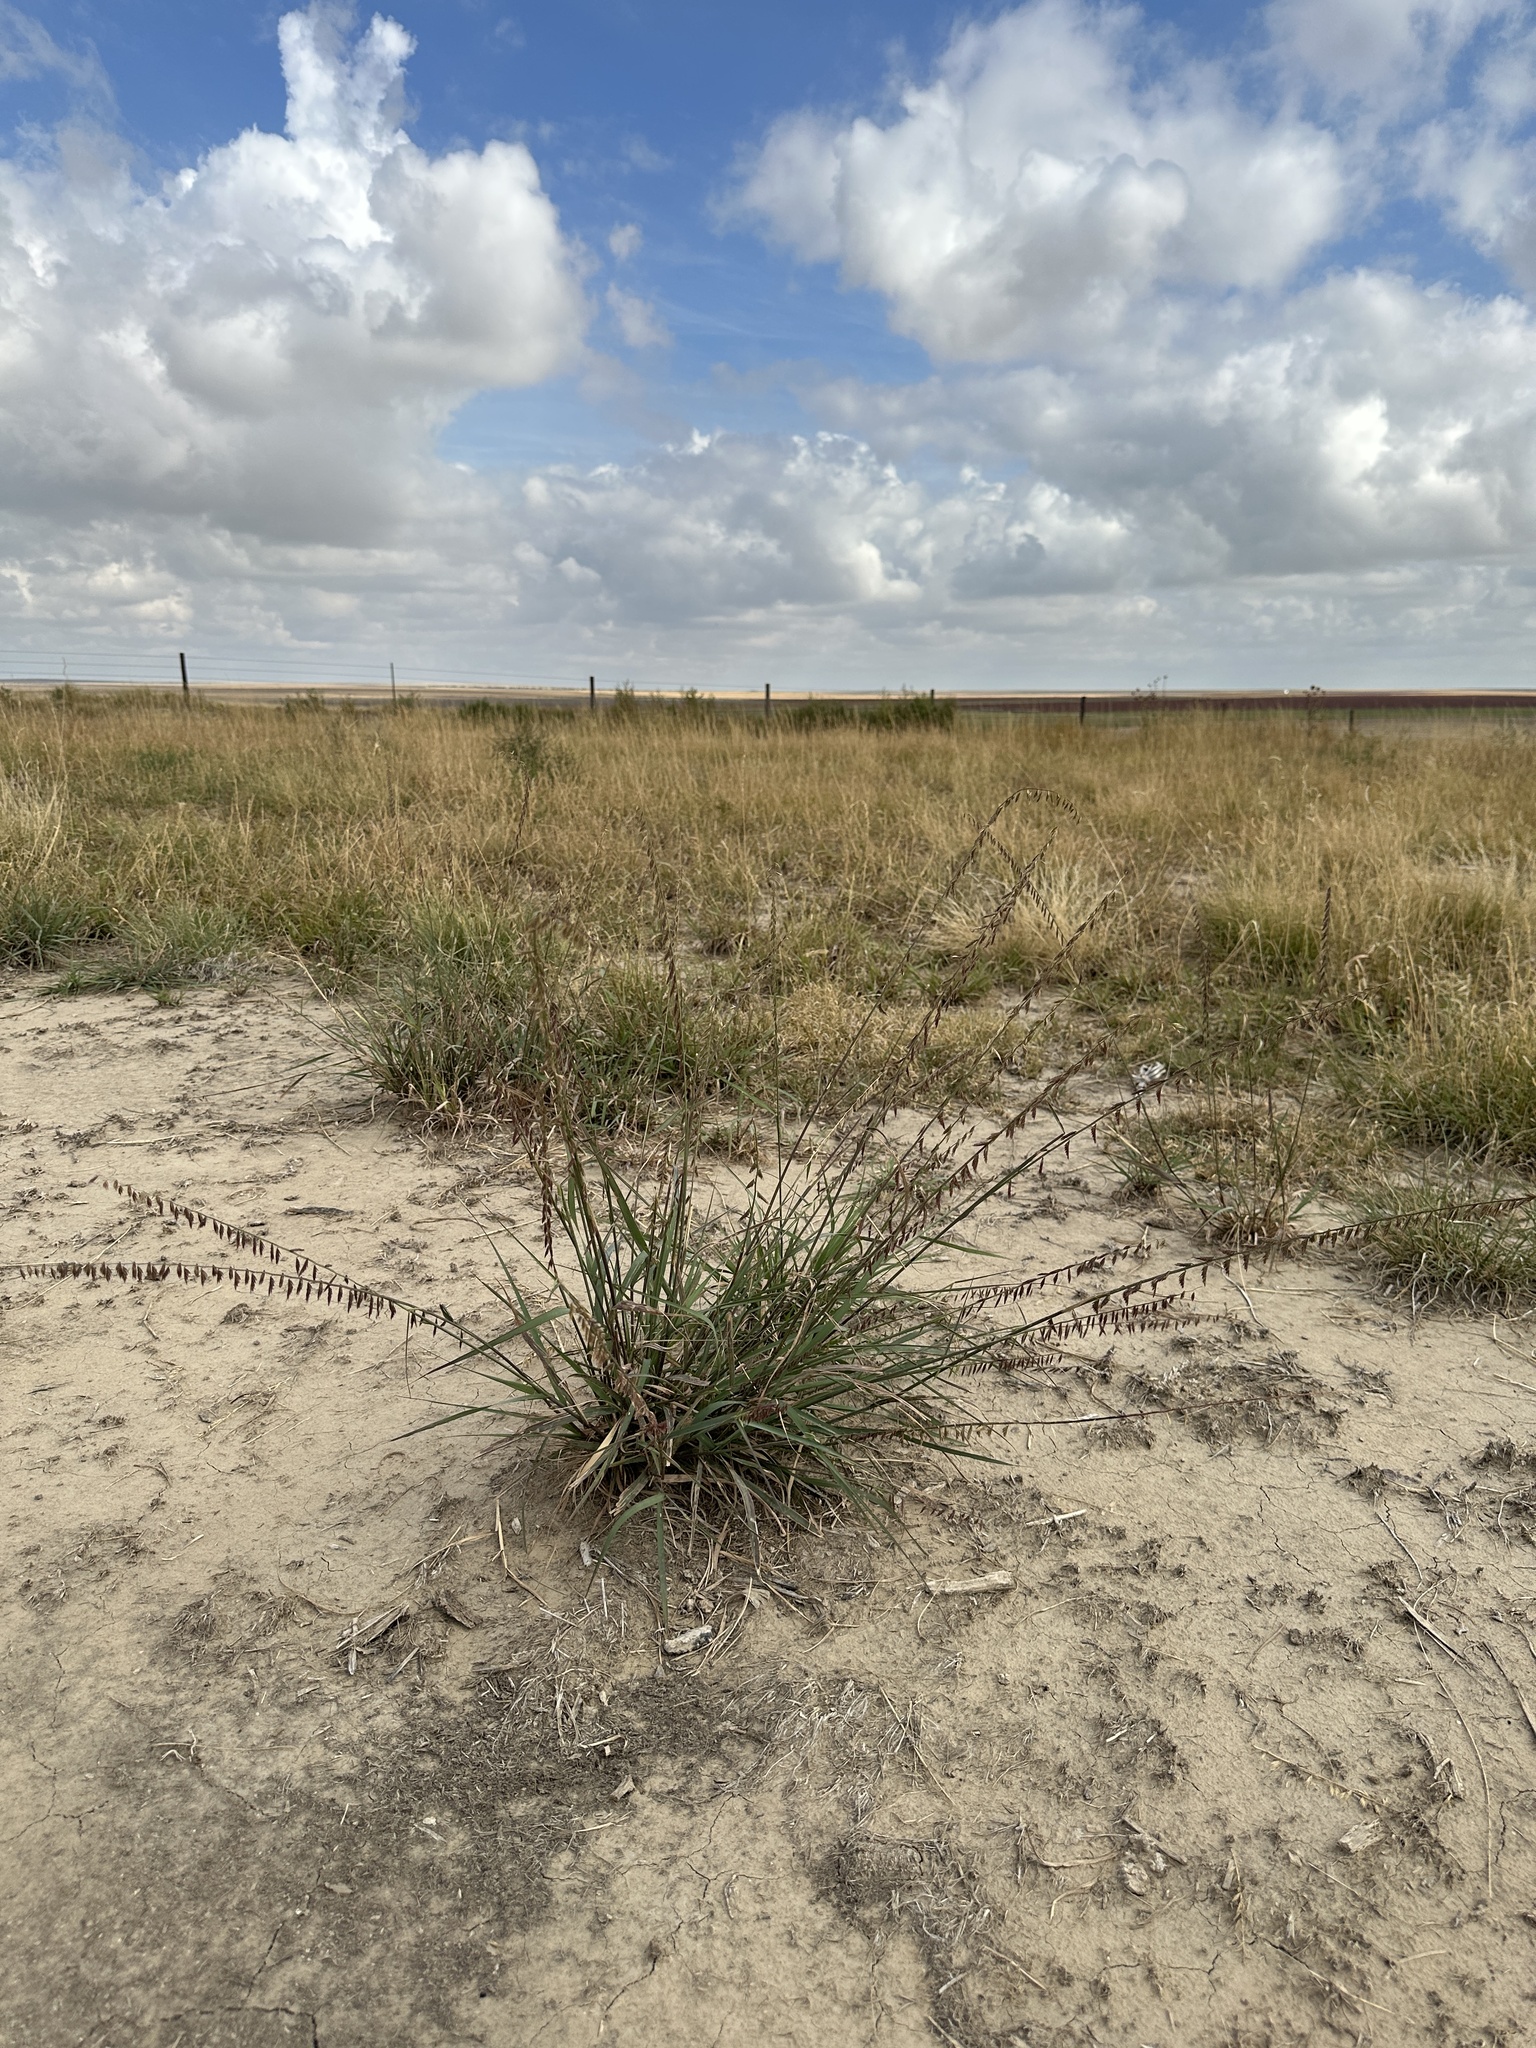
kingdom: Plantae
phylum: Tracheophyta
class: Liliopsida
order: Poales
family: Poaceae
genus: Bouteloua
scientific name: Bouteloua curtipendula
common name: Side-oats grama
